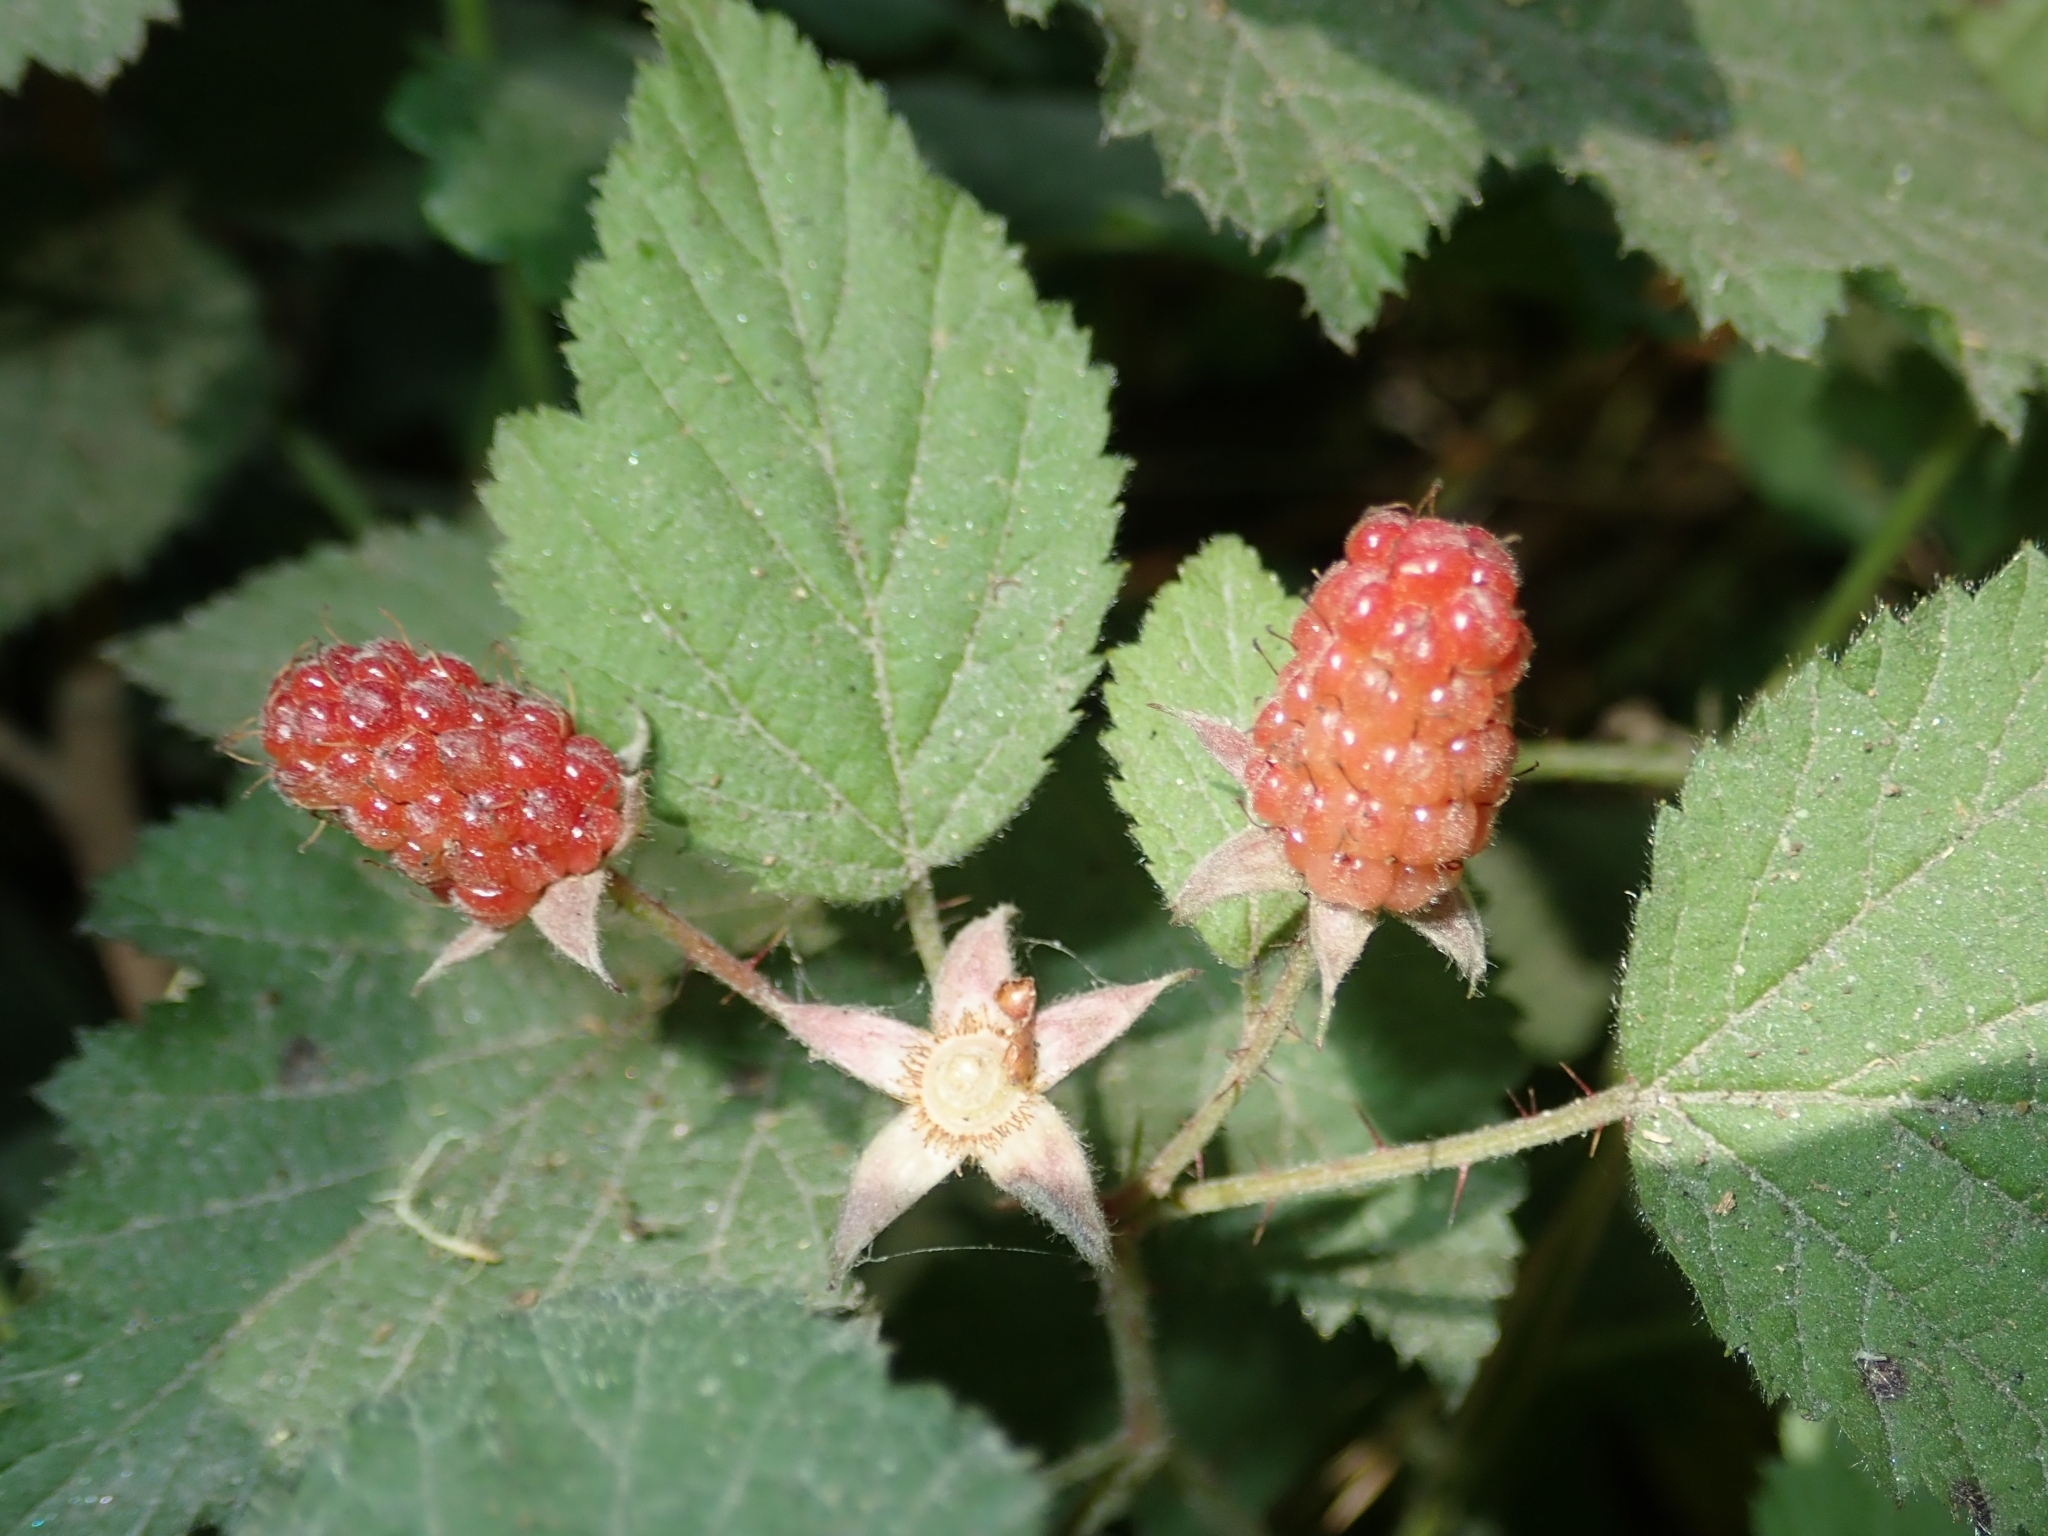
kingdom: Plantae
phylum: Tracheophyta
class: Magnoliopsida
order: Rosales
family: Rosaceae
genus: Rubus
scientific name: Rubus ursinus
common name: Pacific blackberry
